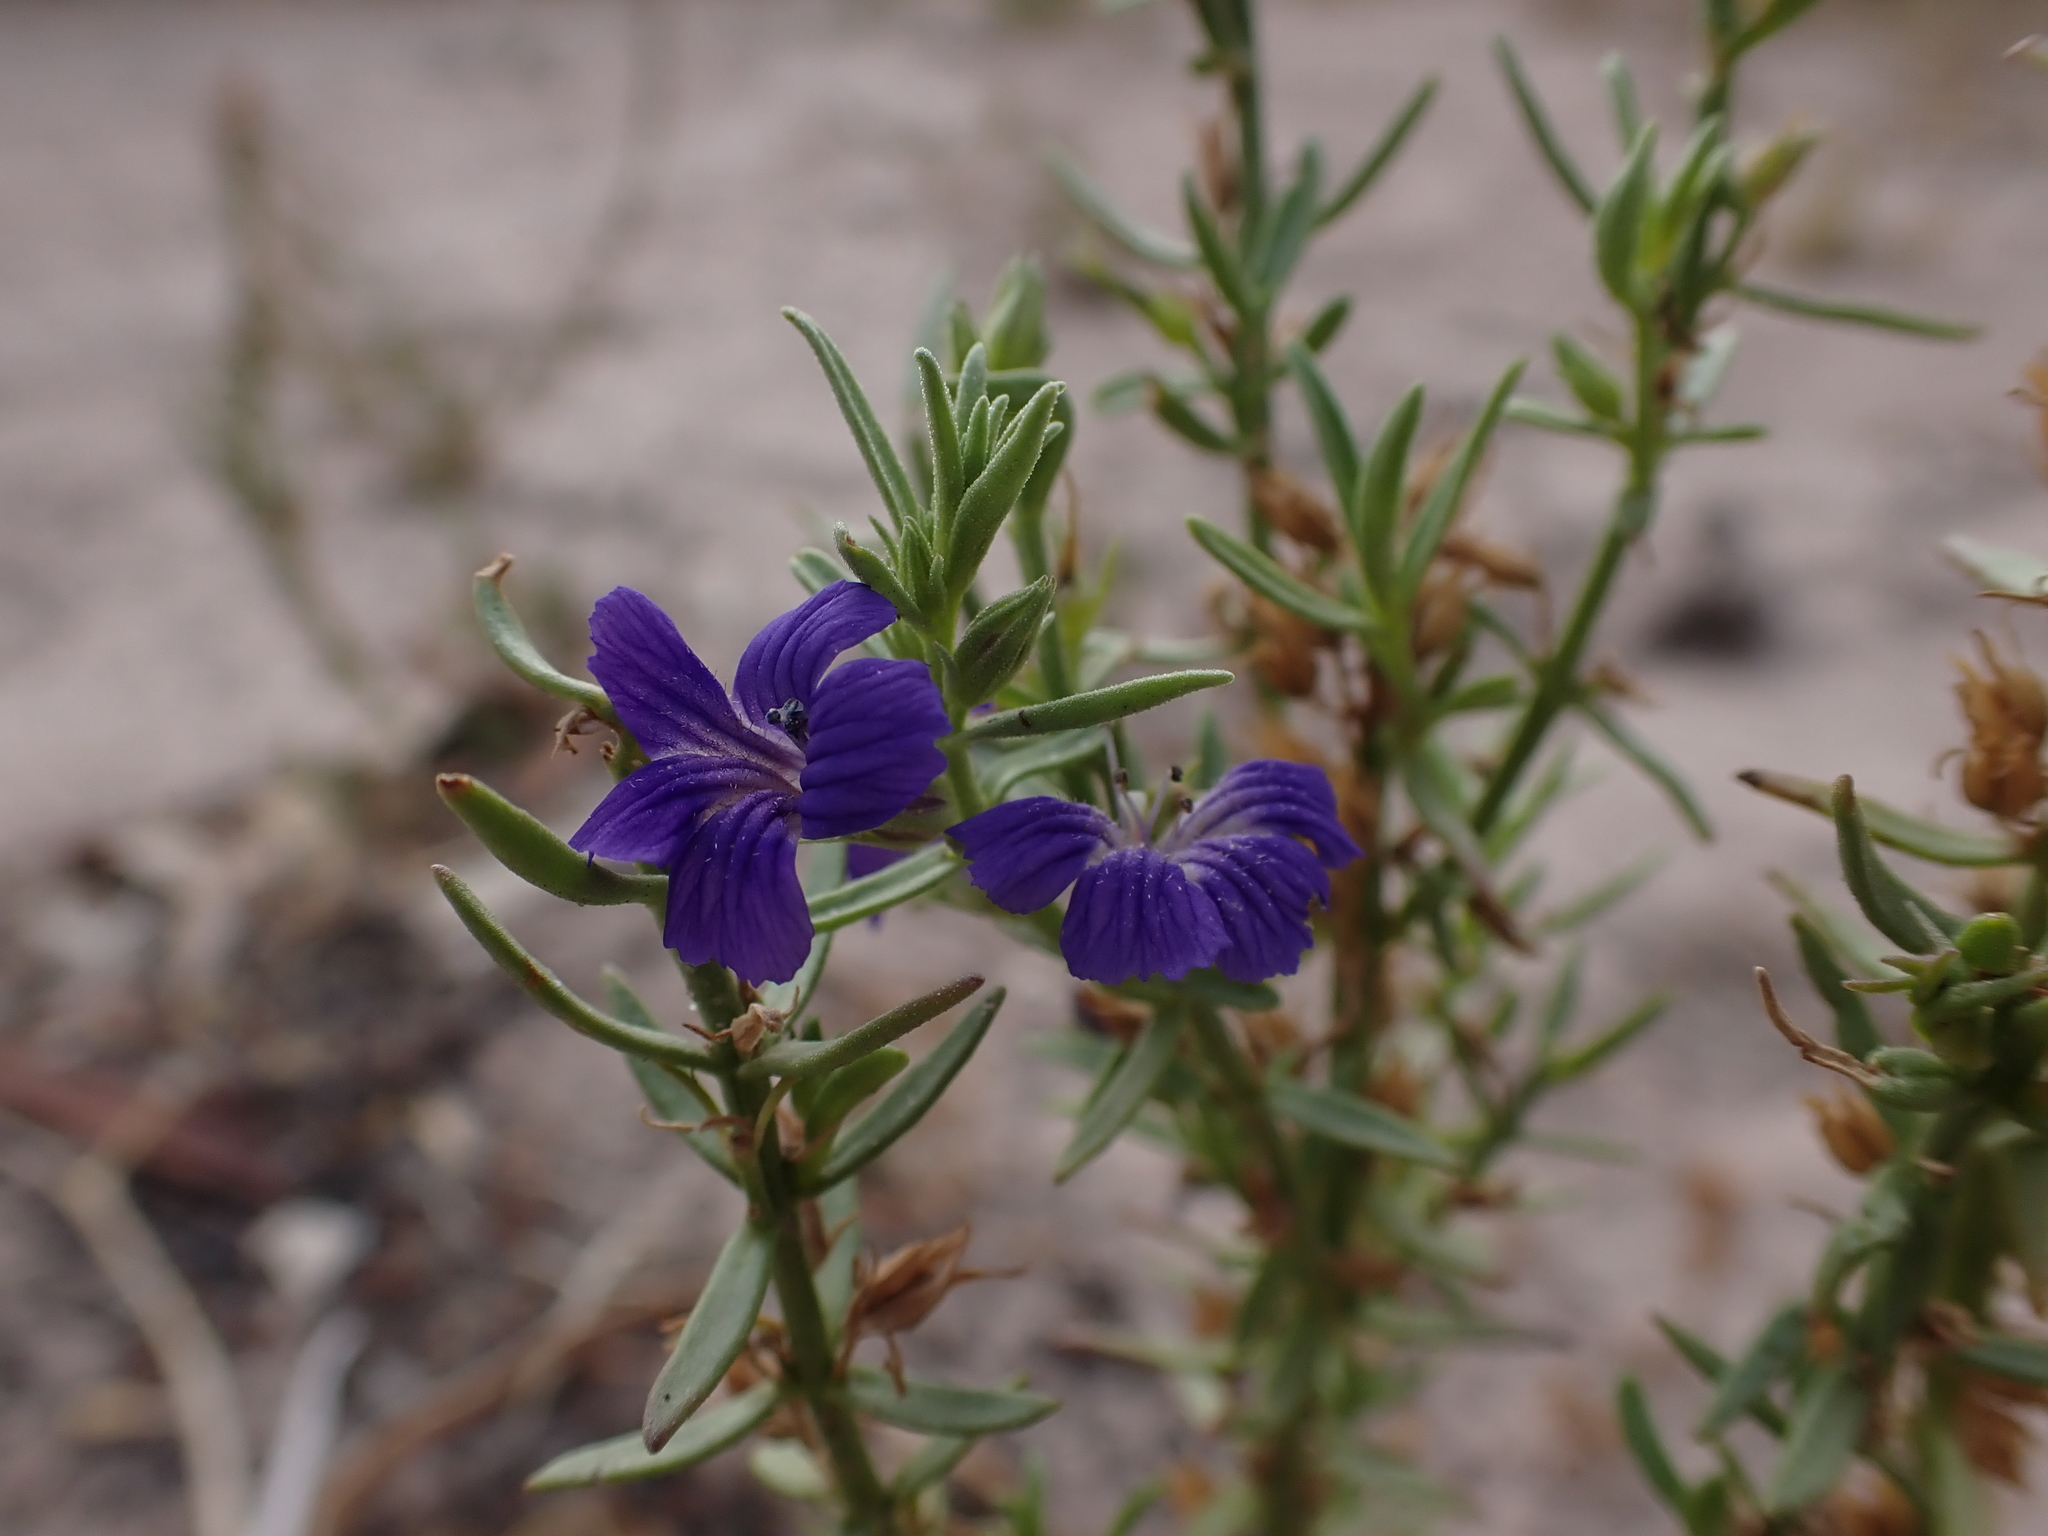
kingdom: Plantae
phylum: Tracheophyta
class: Magnoliopsida
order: Lamiales
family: Plantaginaceae
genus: Stemodia
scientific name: Stemodia florulenta
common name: Bluerod
